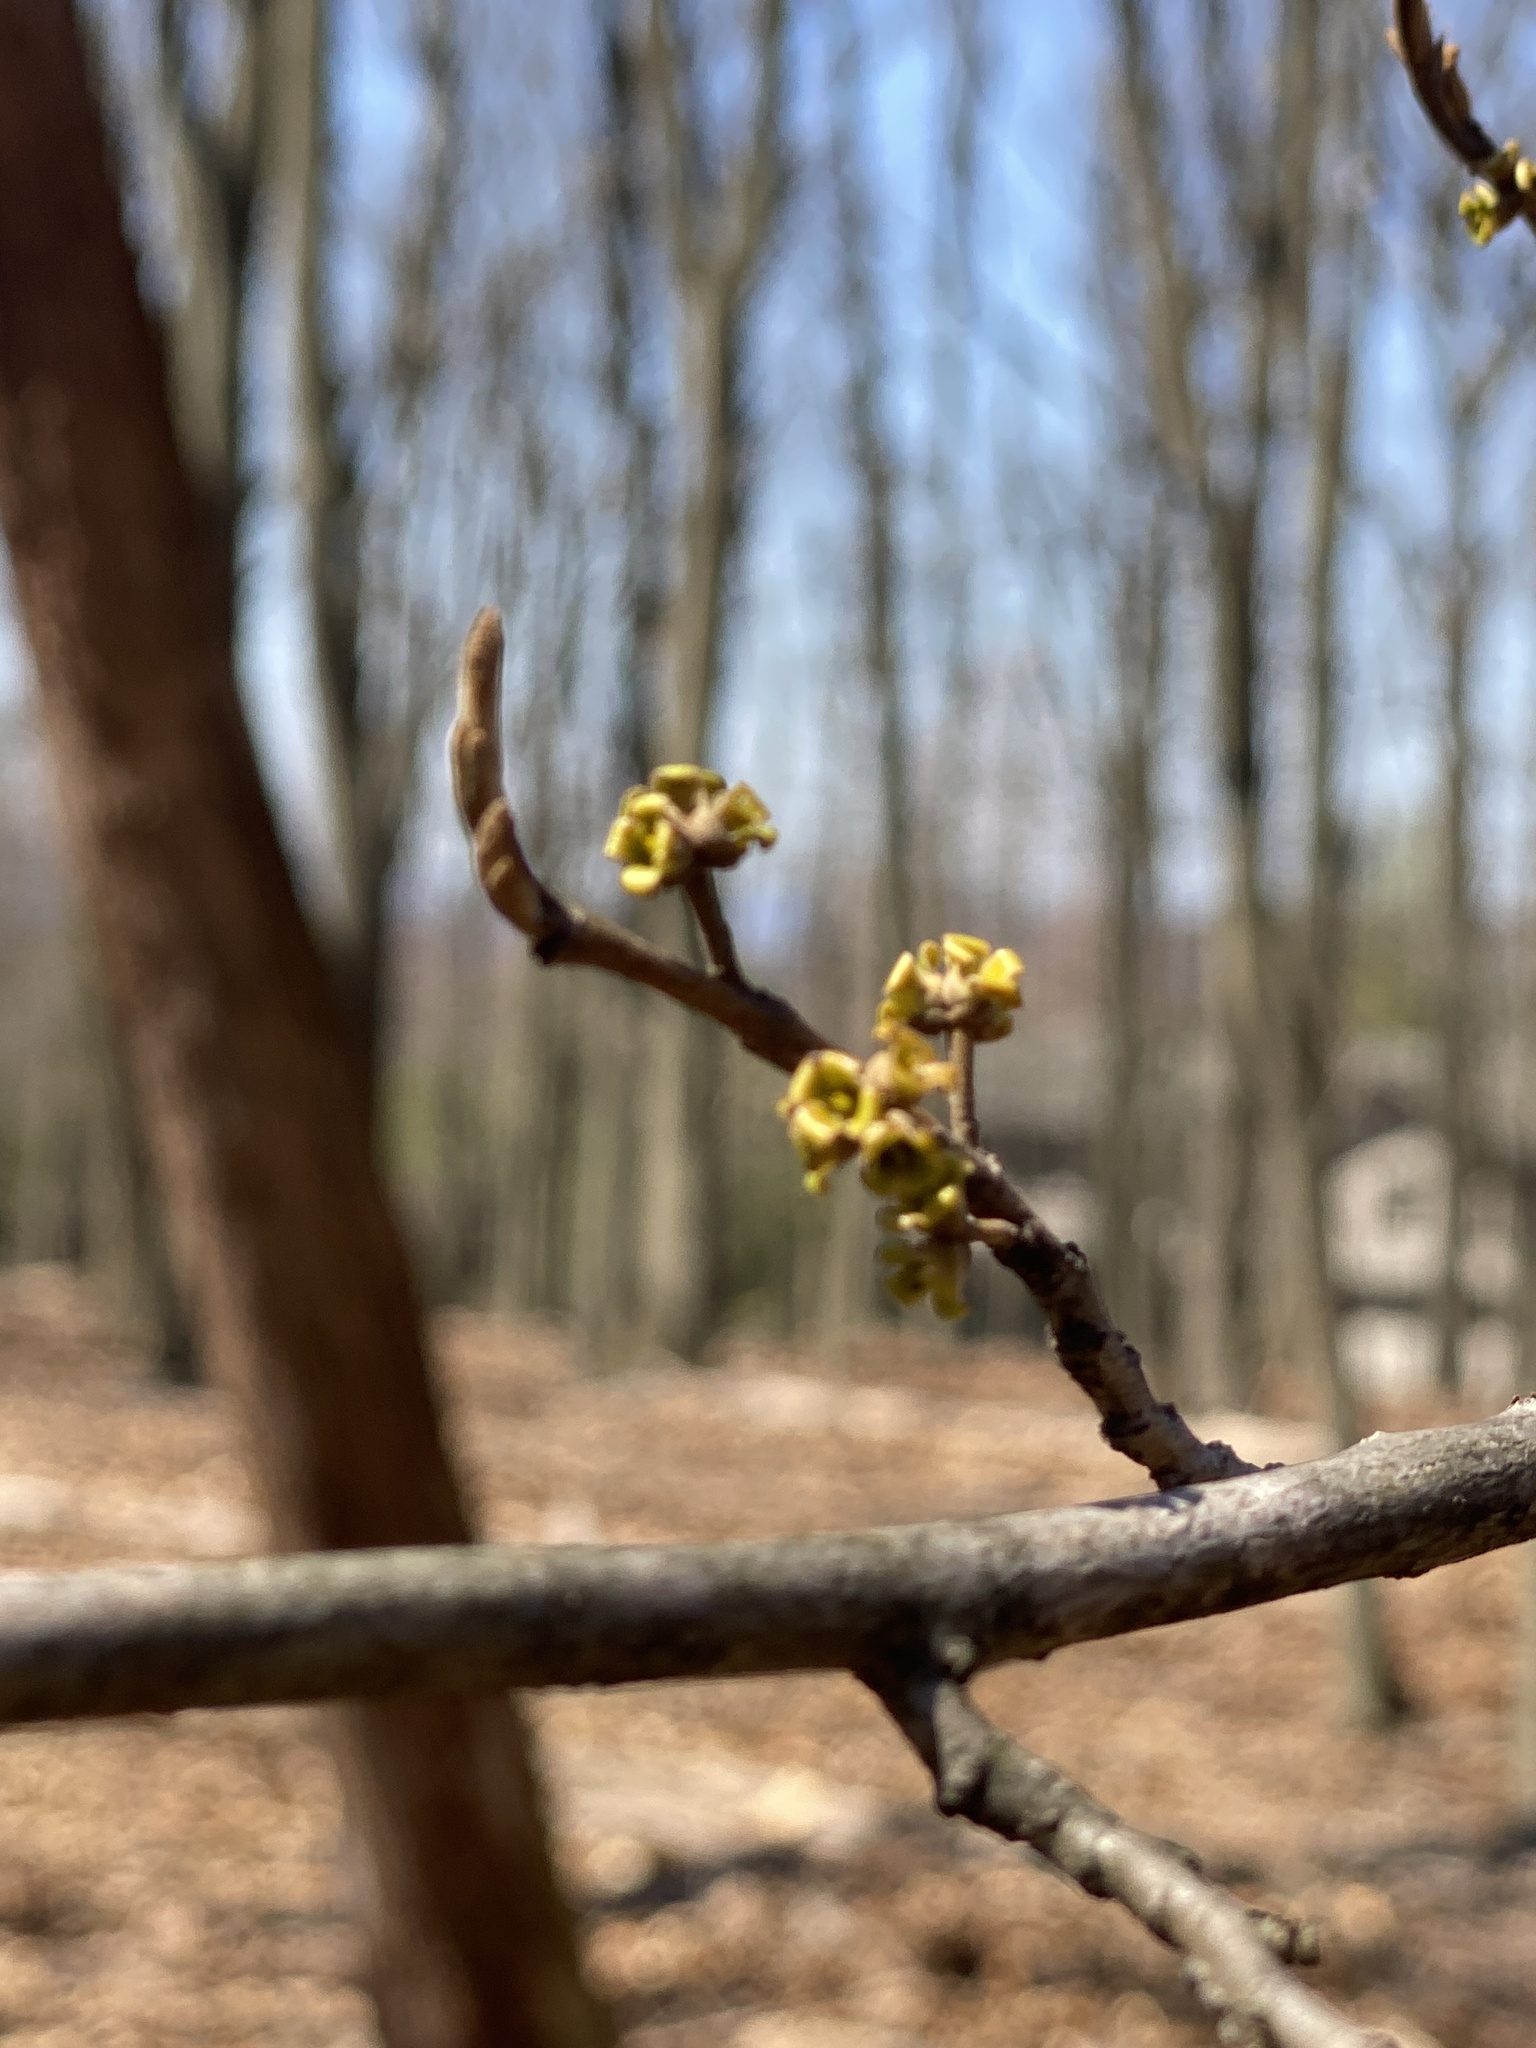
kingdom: Plantae
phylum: Tracheophyta
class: Magnoliopsida
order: Saxifragales
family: Hamamelidaceae
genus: Hamamelis
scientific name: Hamamelis virginiana
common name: Witch-hazel
